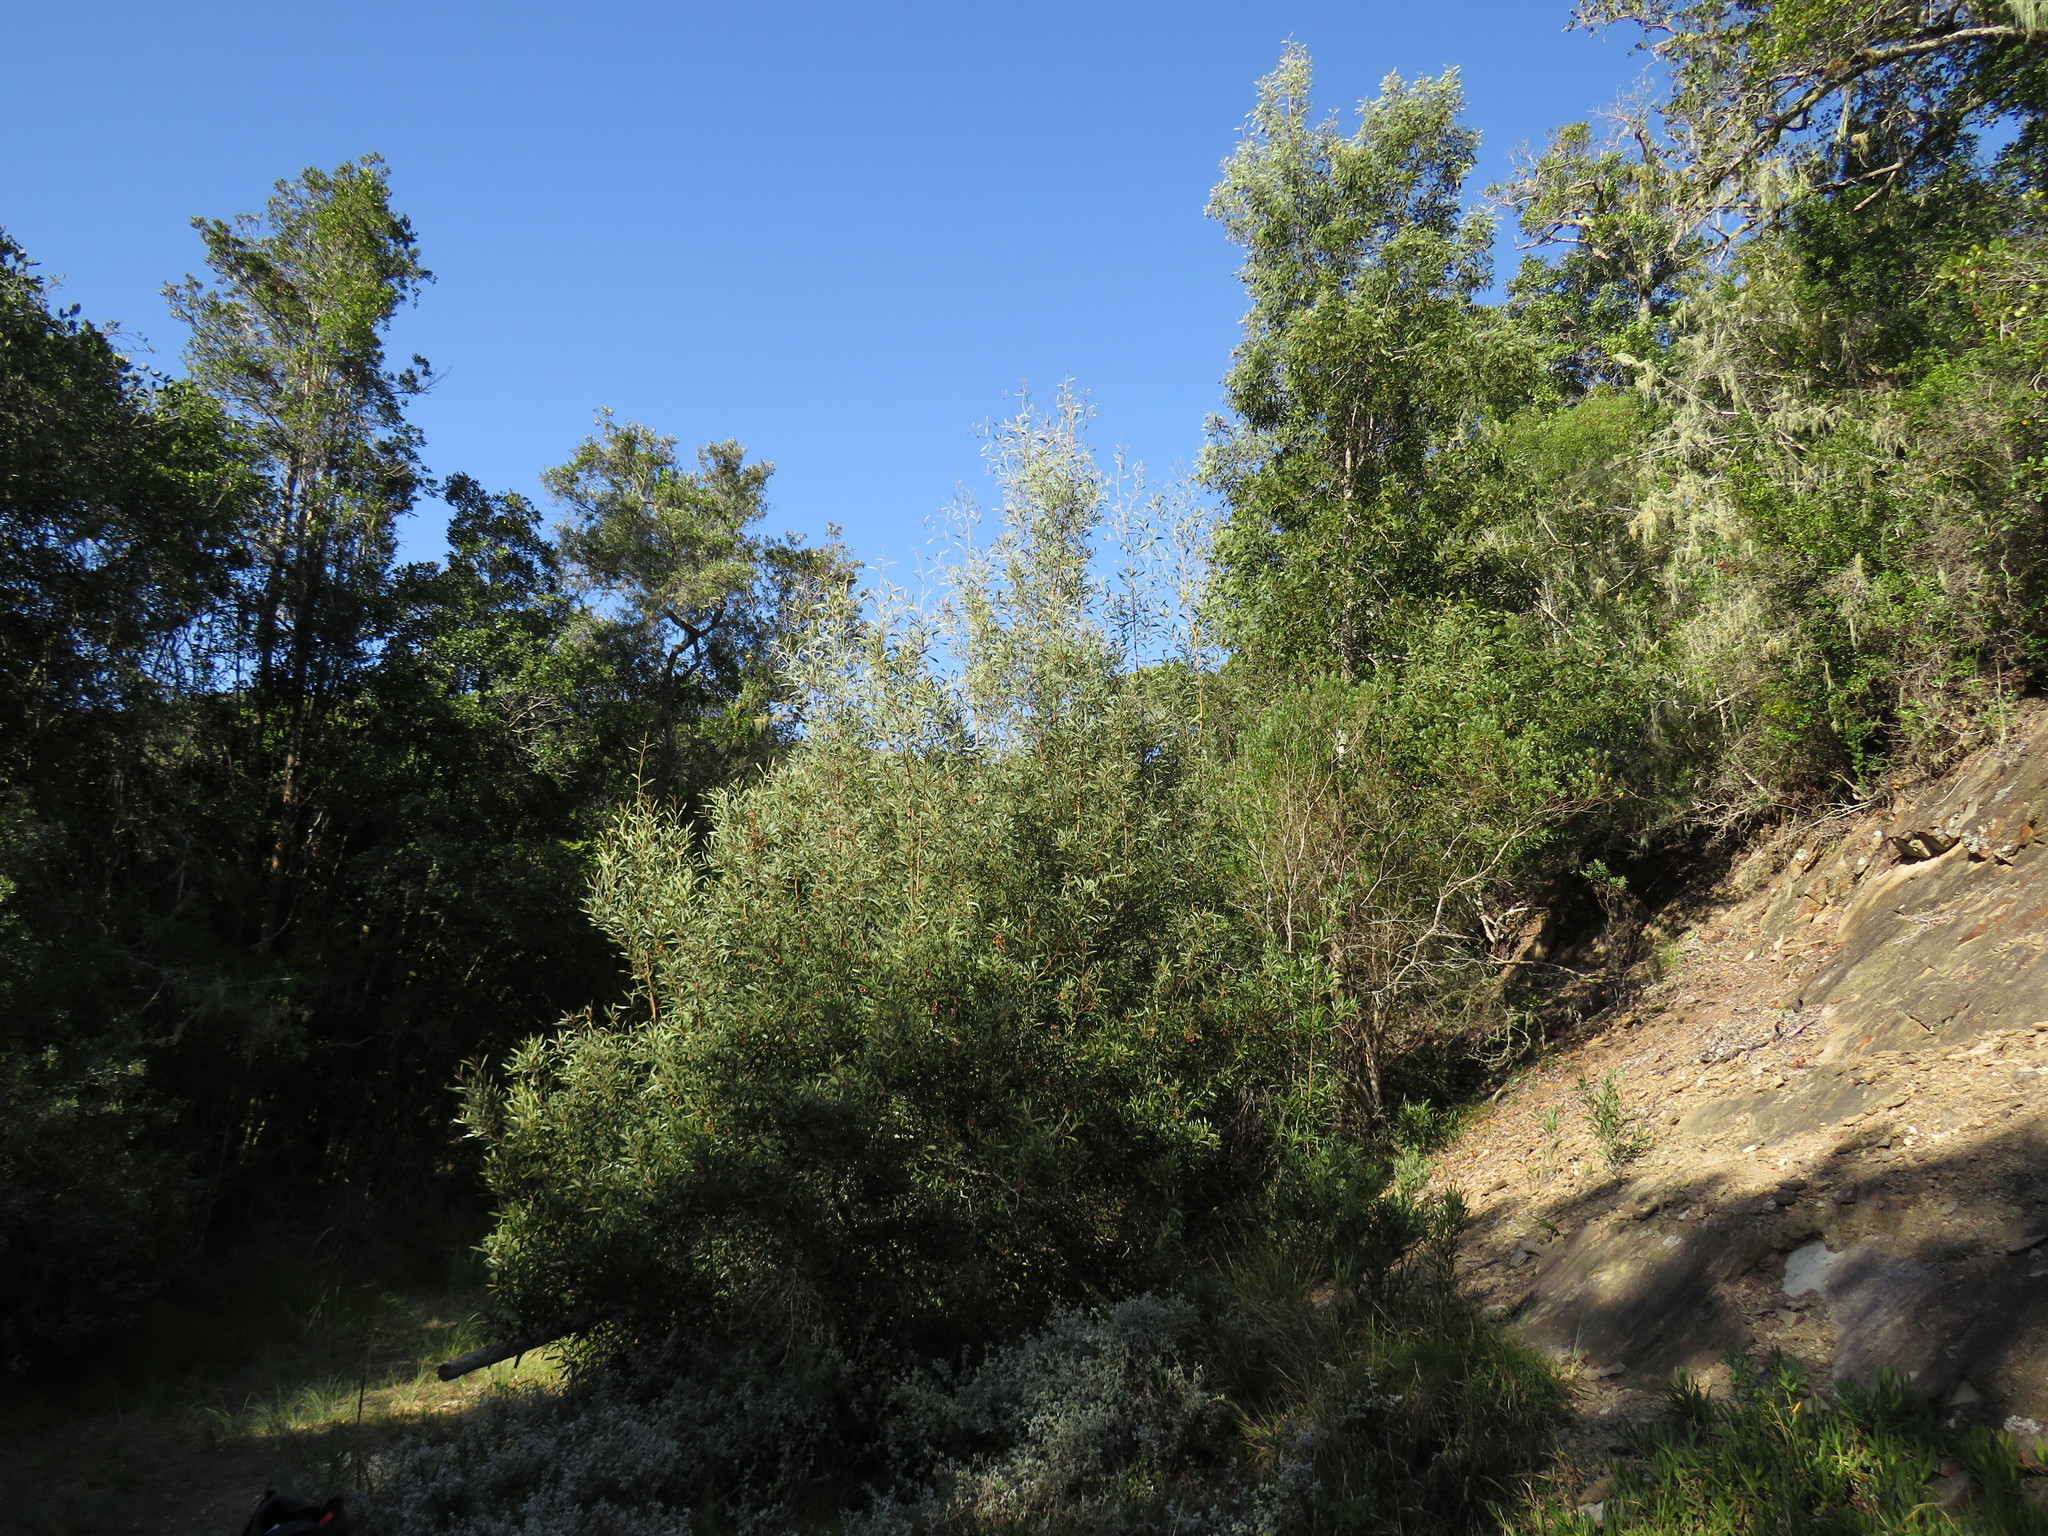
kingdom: Plantae
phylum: Tracheophyta
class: Magnoliopsida
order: Fabales
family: Fabaceae
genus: Acacia
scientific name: Acacia melanoxylon
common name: Blackwood
